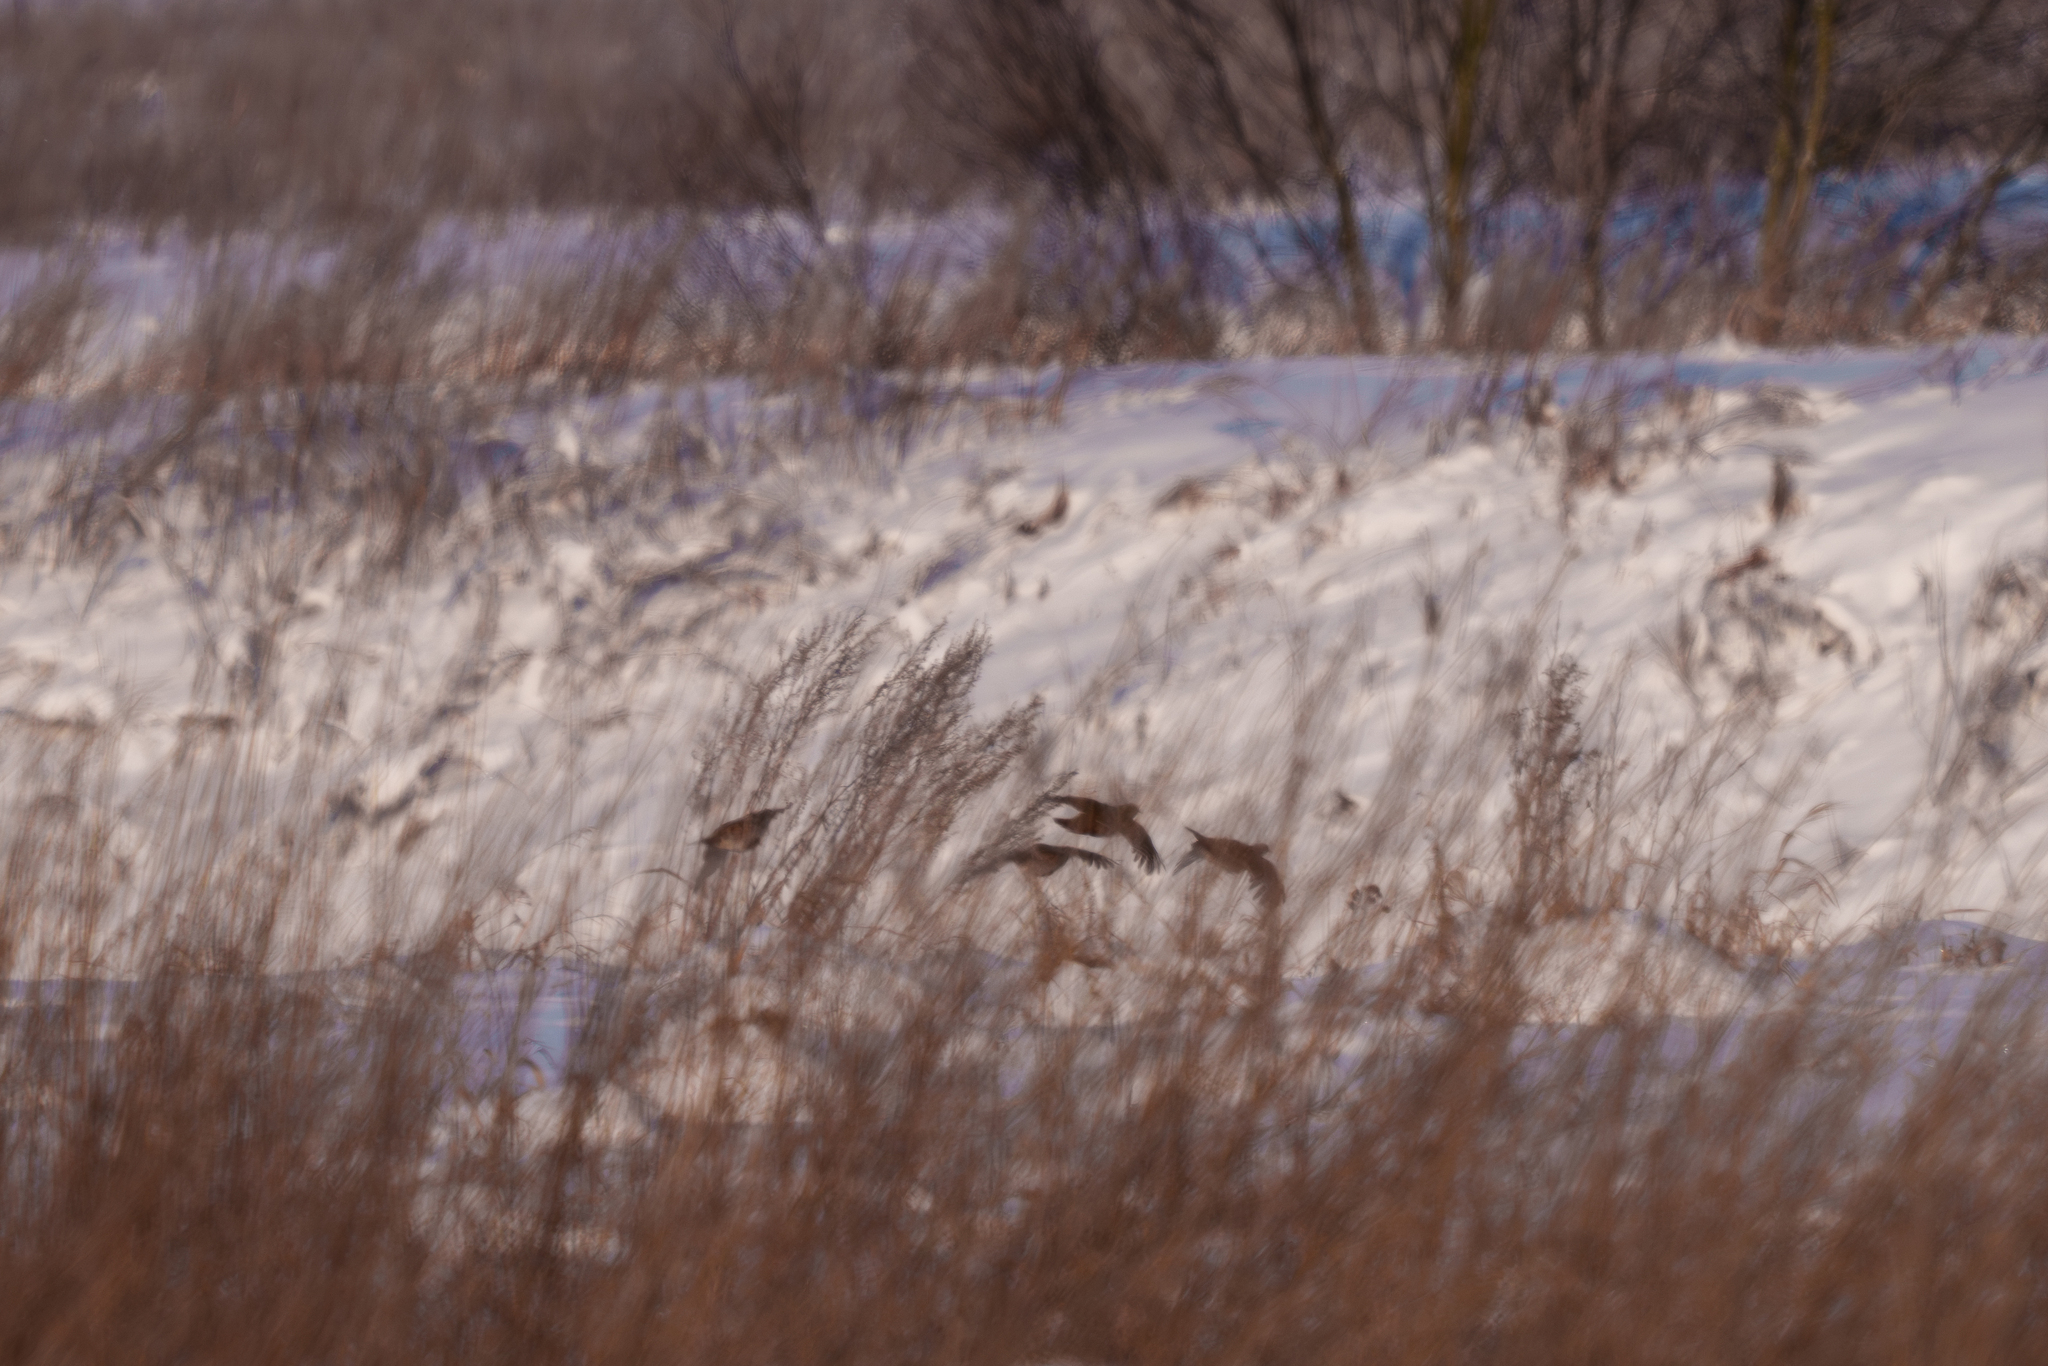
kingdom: Animalia
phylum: Chordata
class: Aves
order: Galliformes
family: Phasianidae
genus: Perdix
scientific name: Perdix perdix
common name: Grey partridge
